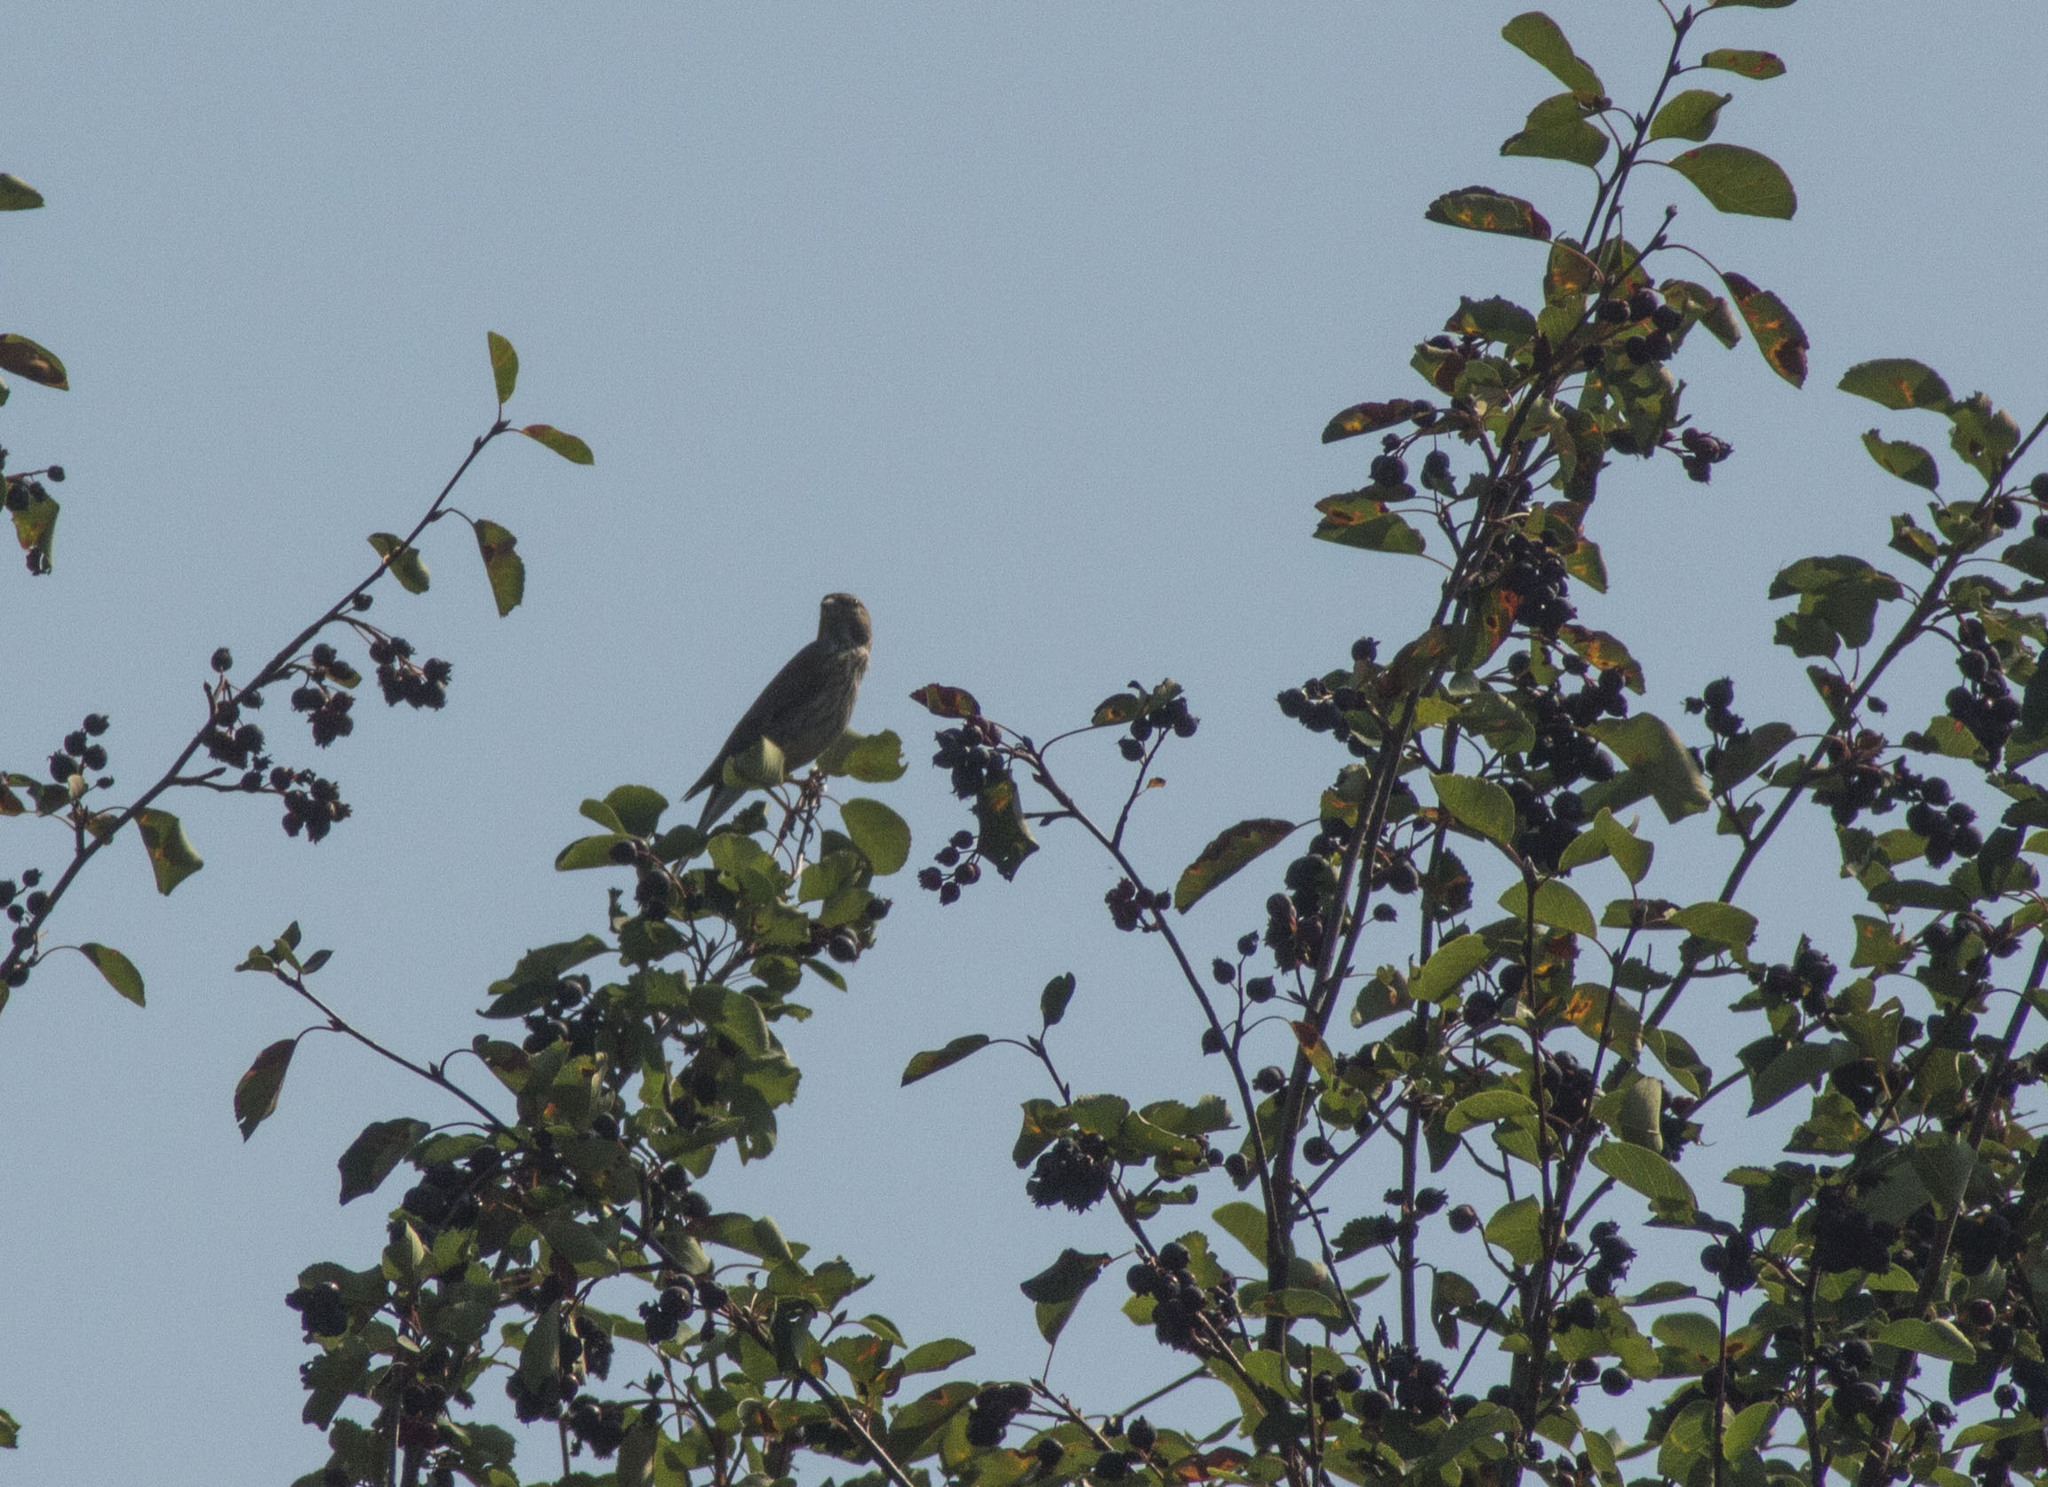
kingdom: Animalia
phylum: Chordata
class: Aves
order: Passeriformes
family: Fringillidae
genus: Linaria
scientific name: Linaria cannabina
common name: Common linnet
